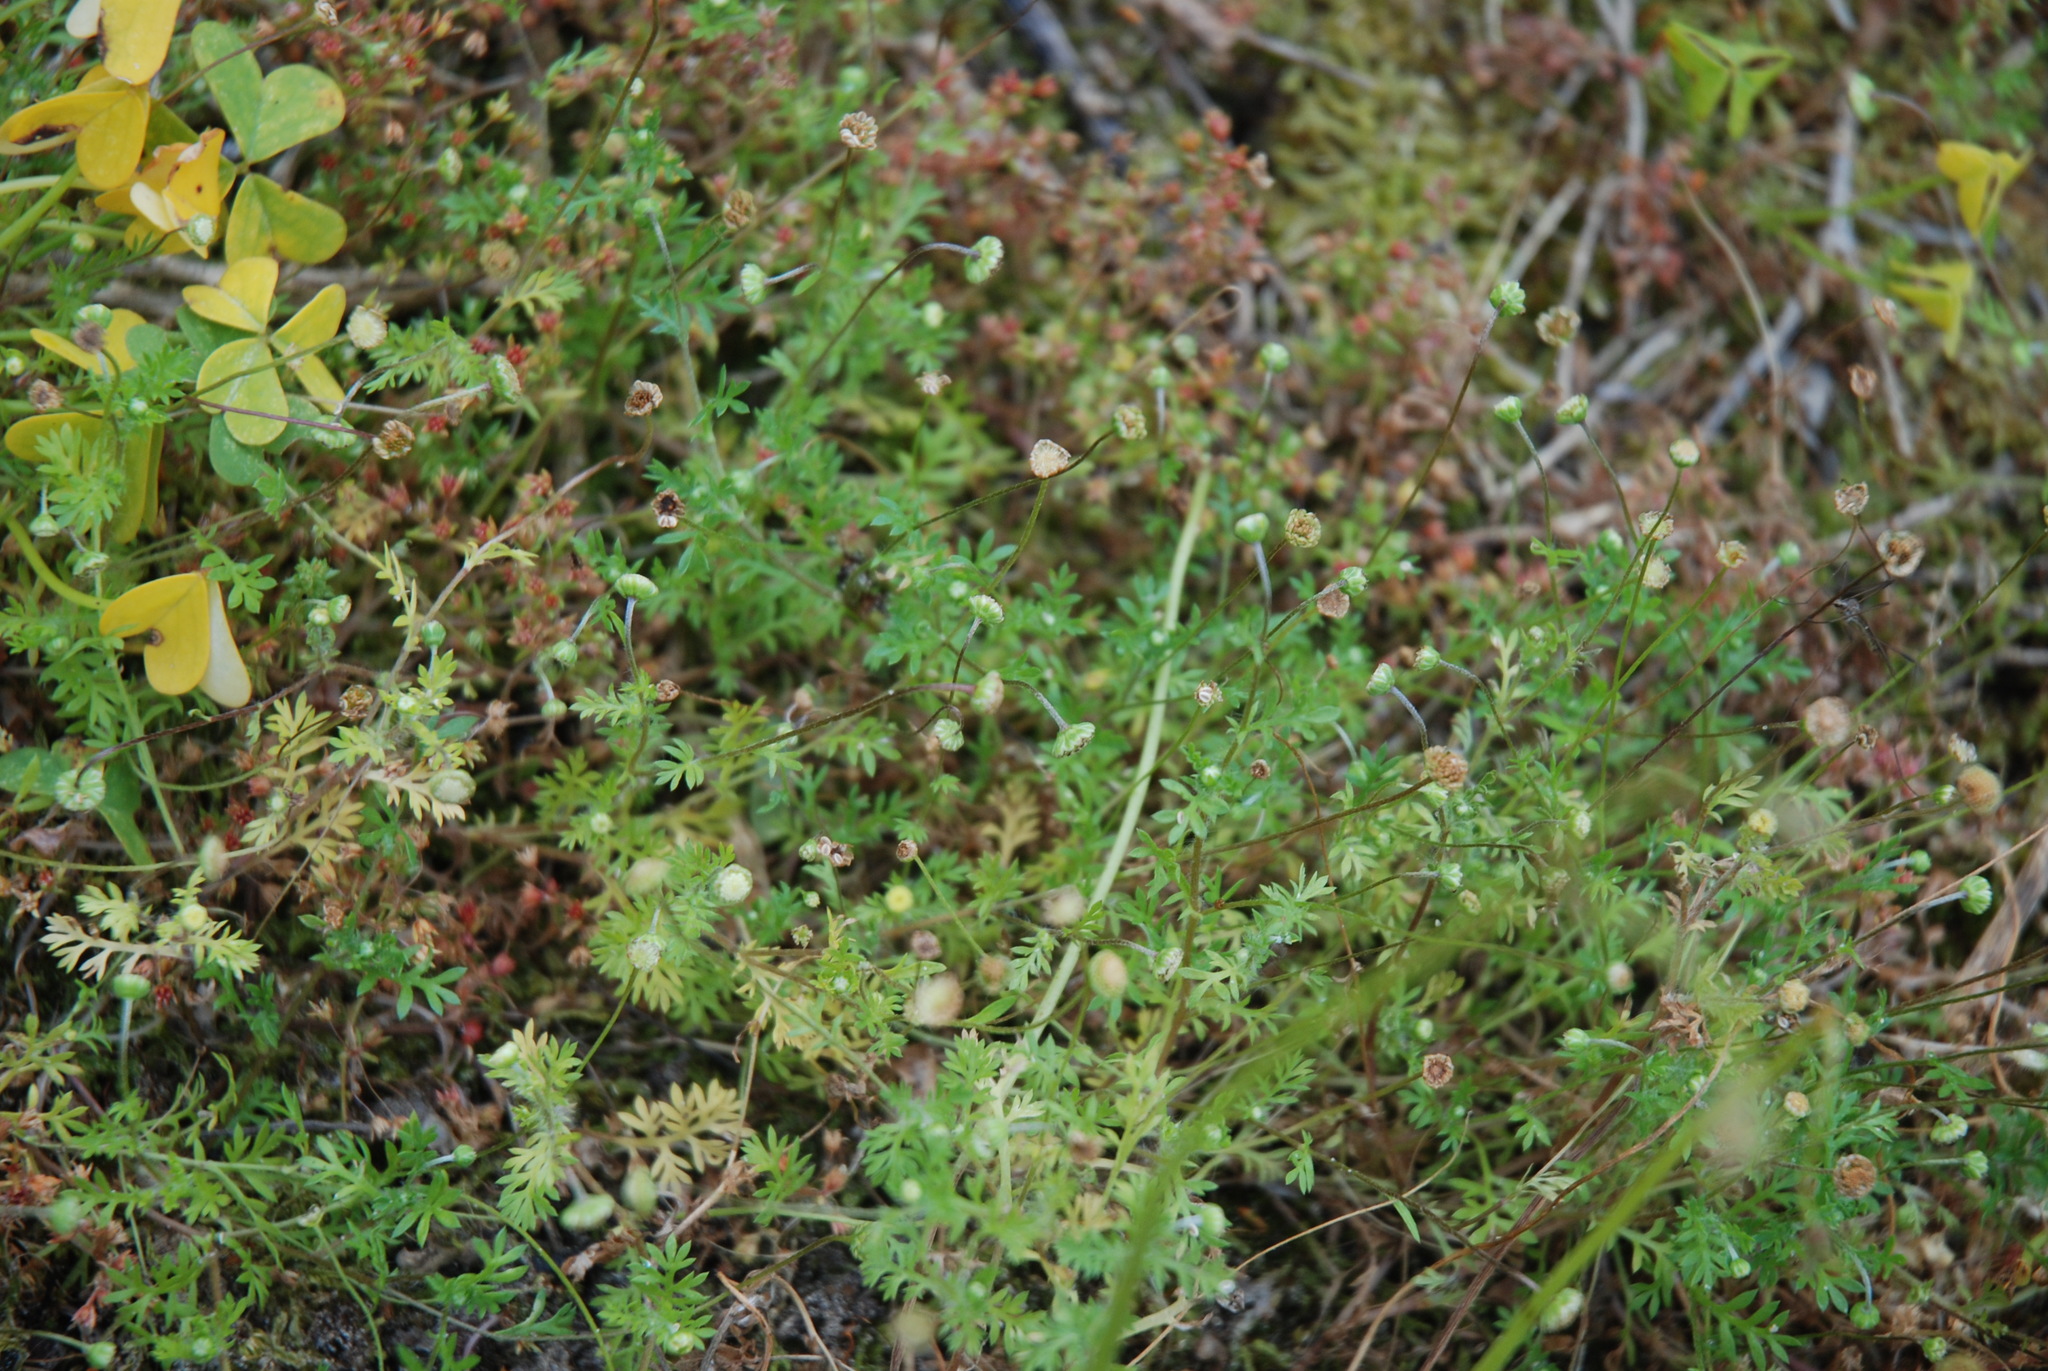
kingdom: Plantae
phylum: Tracheophyta
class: Magnoliopsida
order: Asterales
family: Asteraceae
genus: Cotula
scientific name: Cotula australis
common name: Australian waterbuttons
